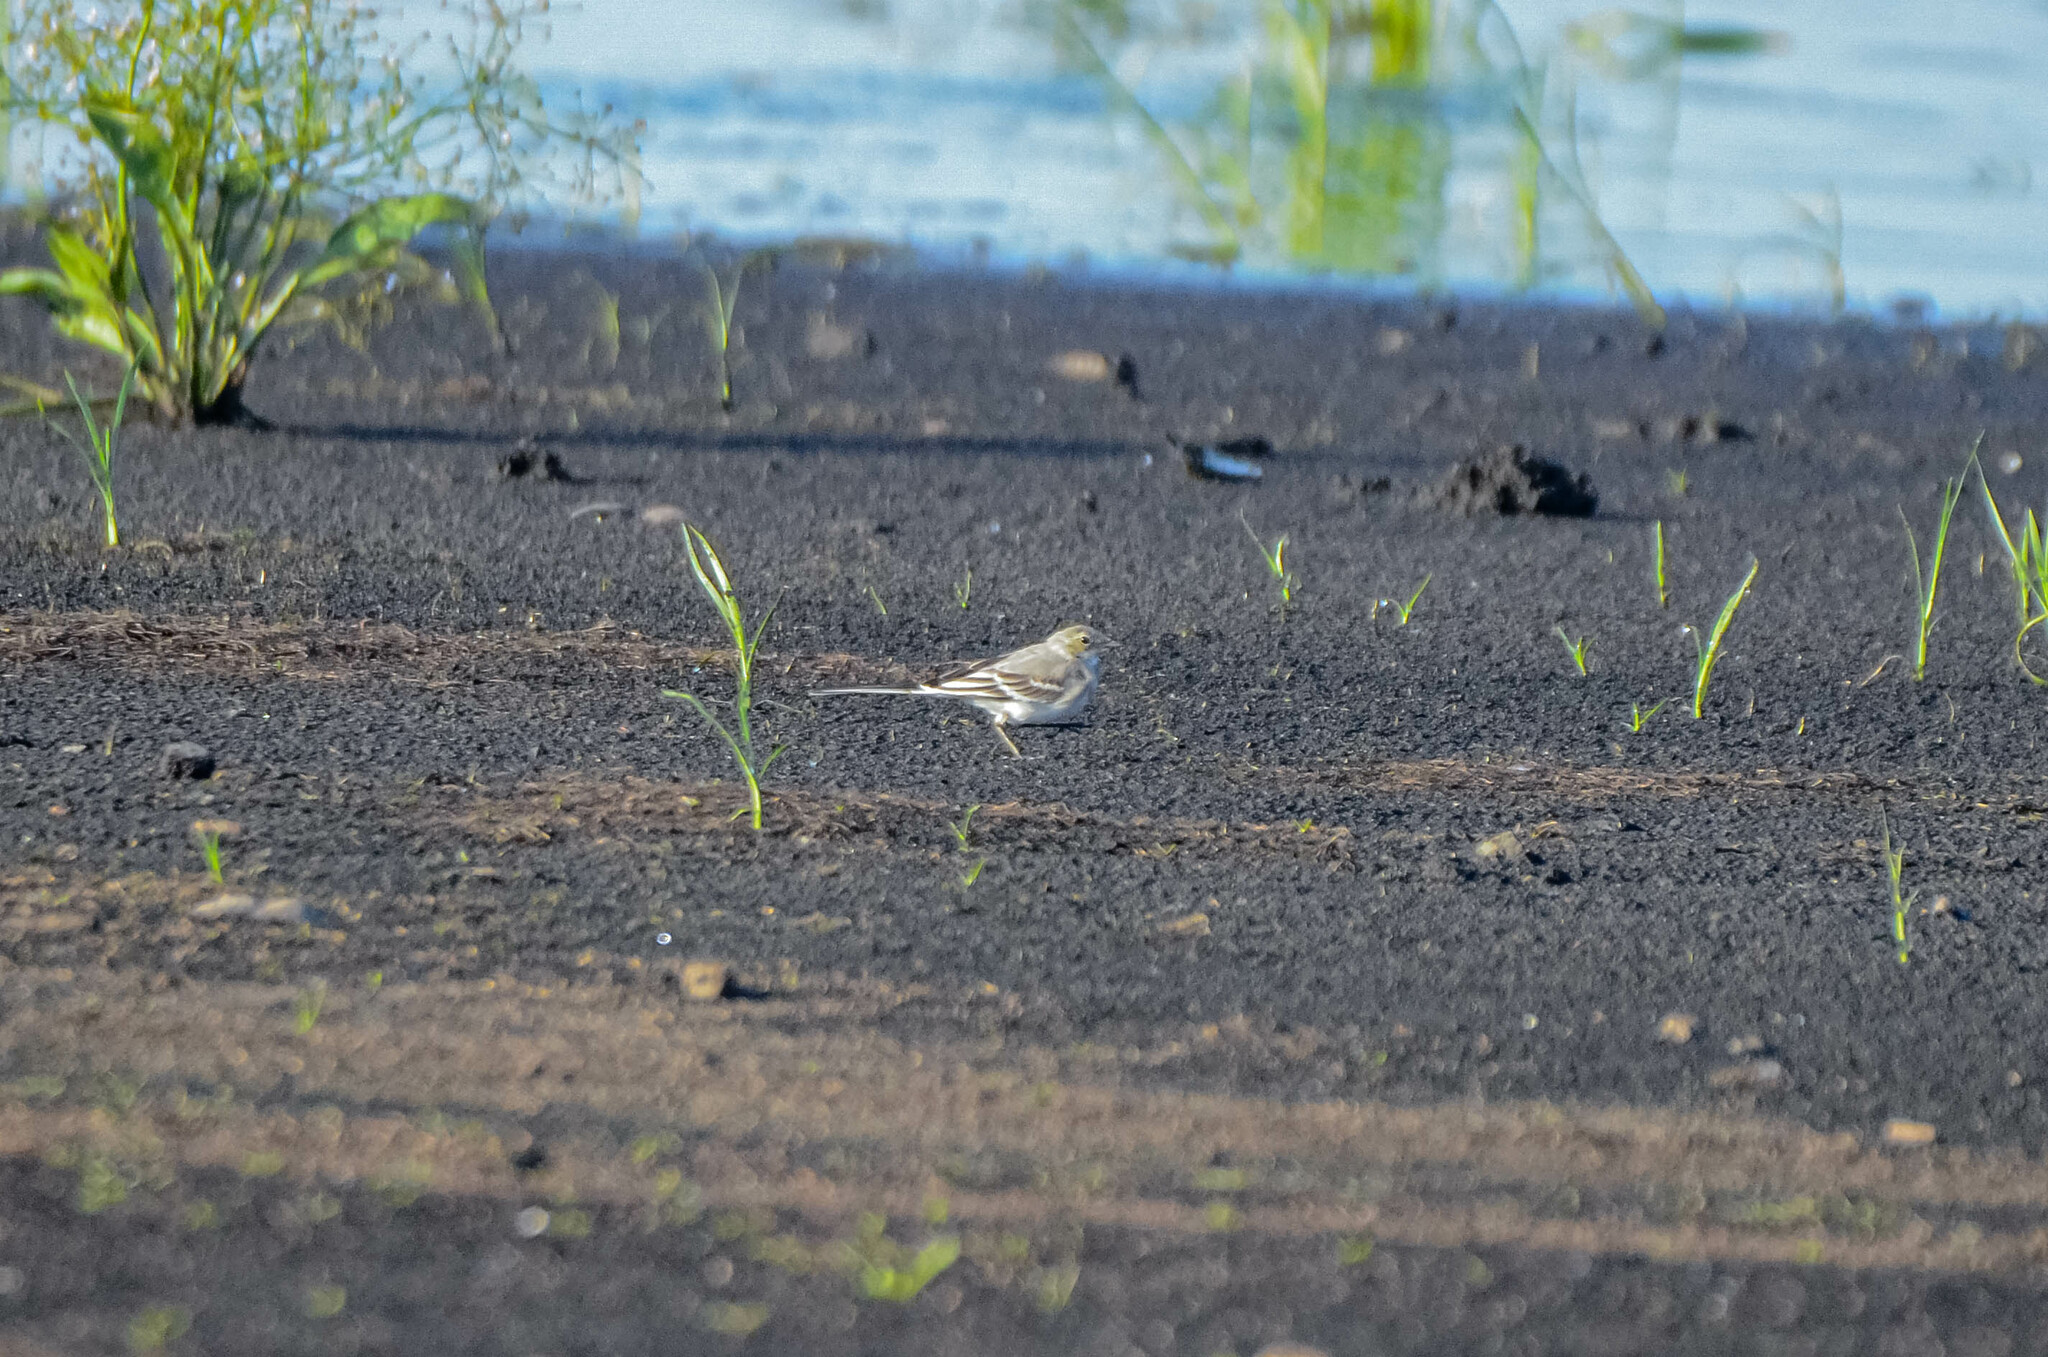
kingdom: Animalia
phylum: Chordata
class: Aves
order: Passeriformes
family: Motacillidae
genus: Motacilla
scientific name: Motacilla alba
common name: White wagtail
